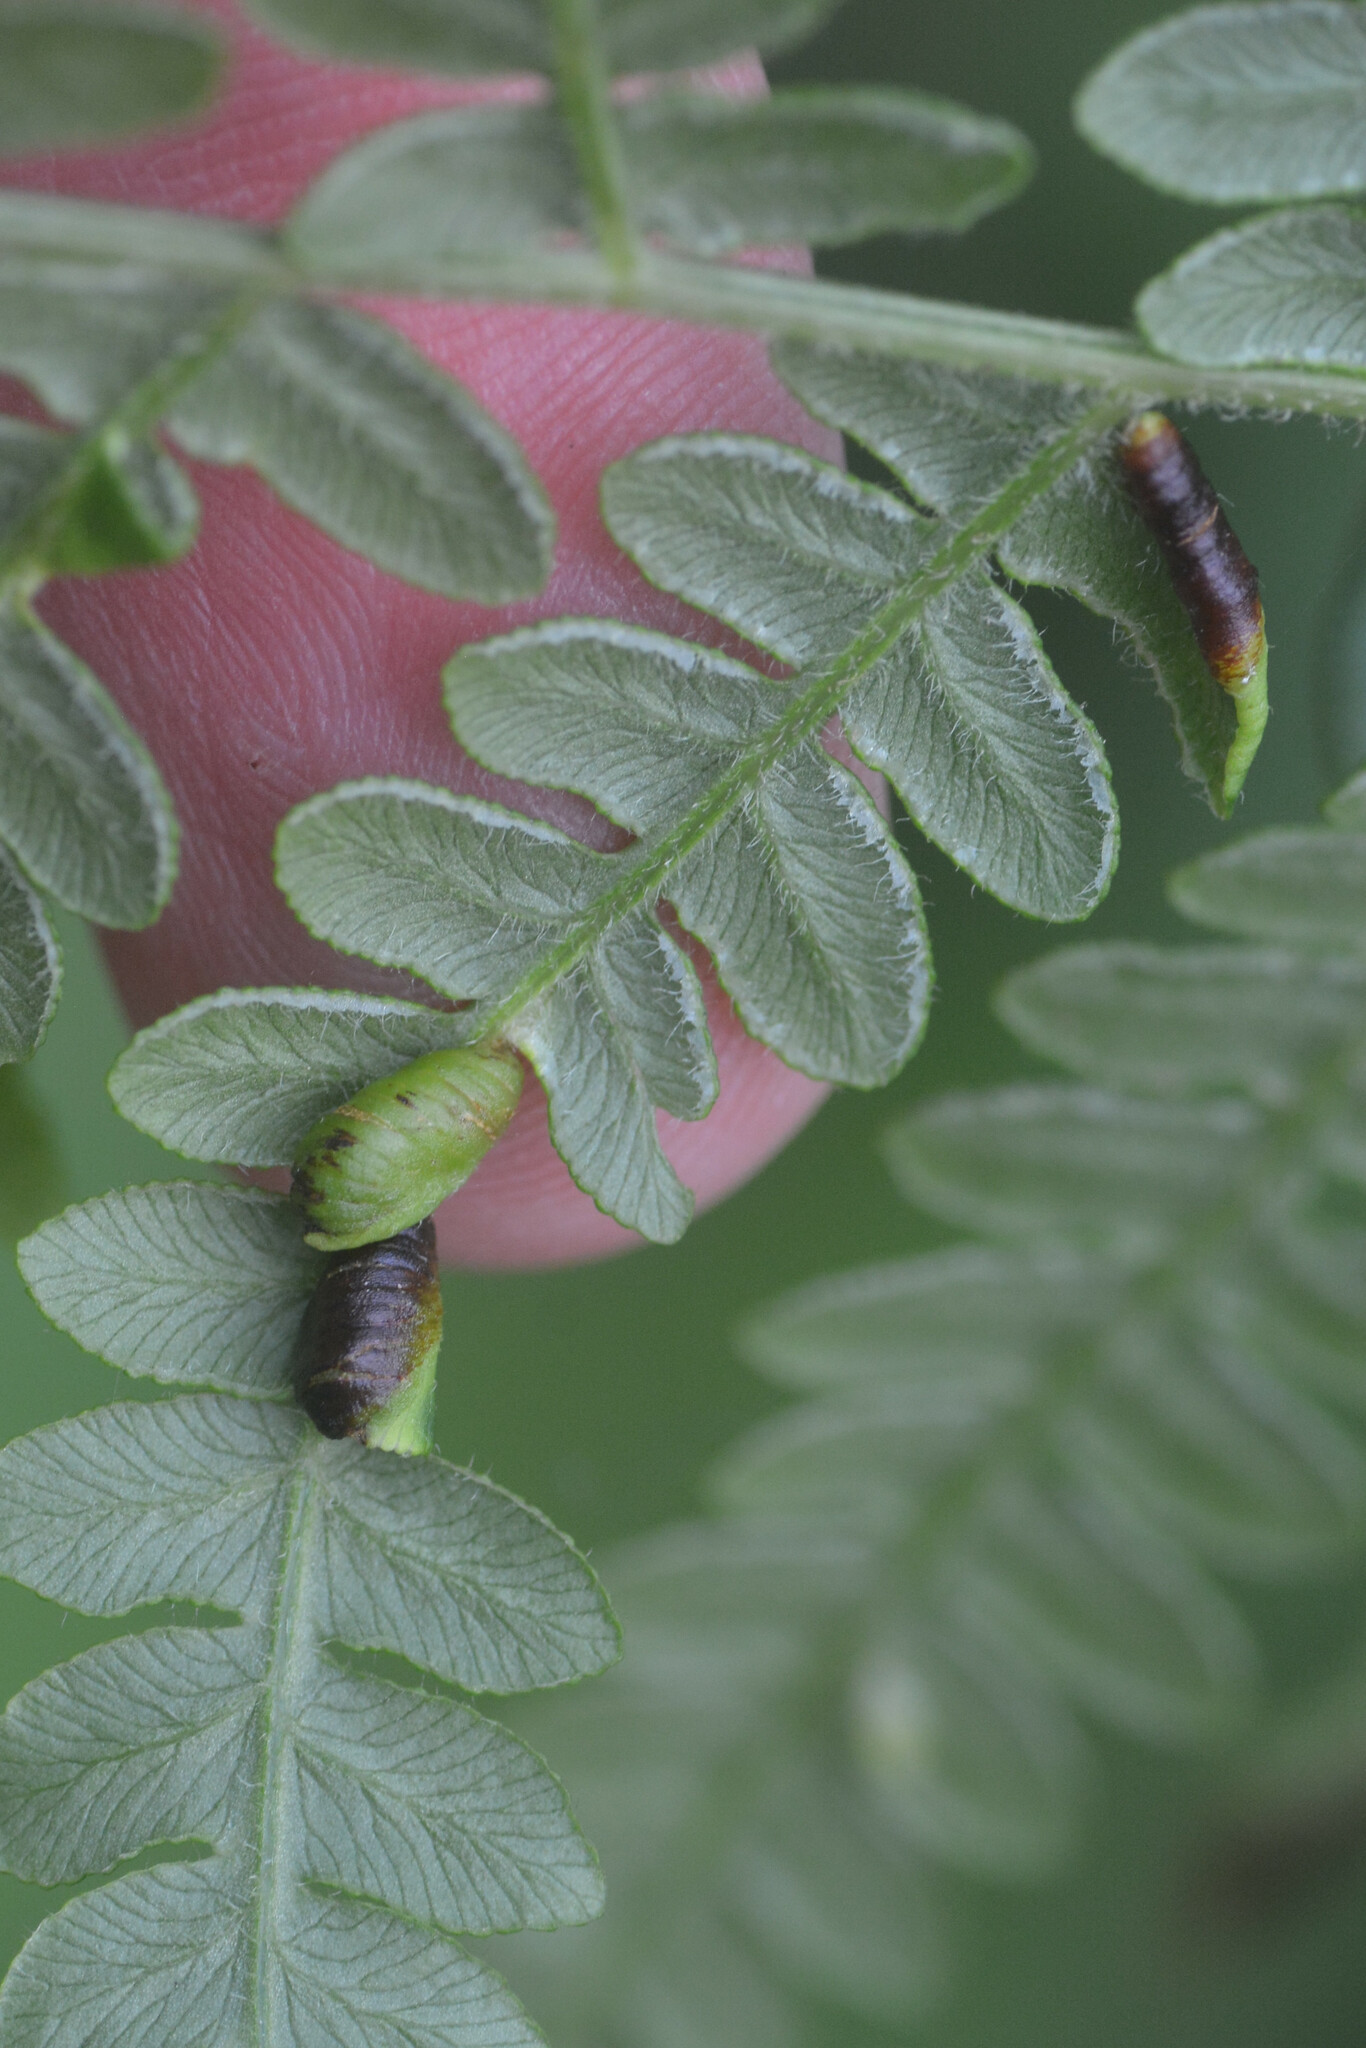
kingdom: Animalia
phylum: Arthropoda
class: Insecta
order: Diptera
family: Cecidomyiidae
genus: Dasineura
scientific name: Dasineura pteridis
